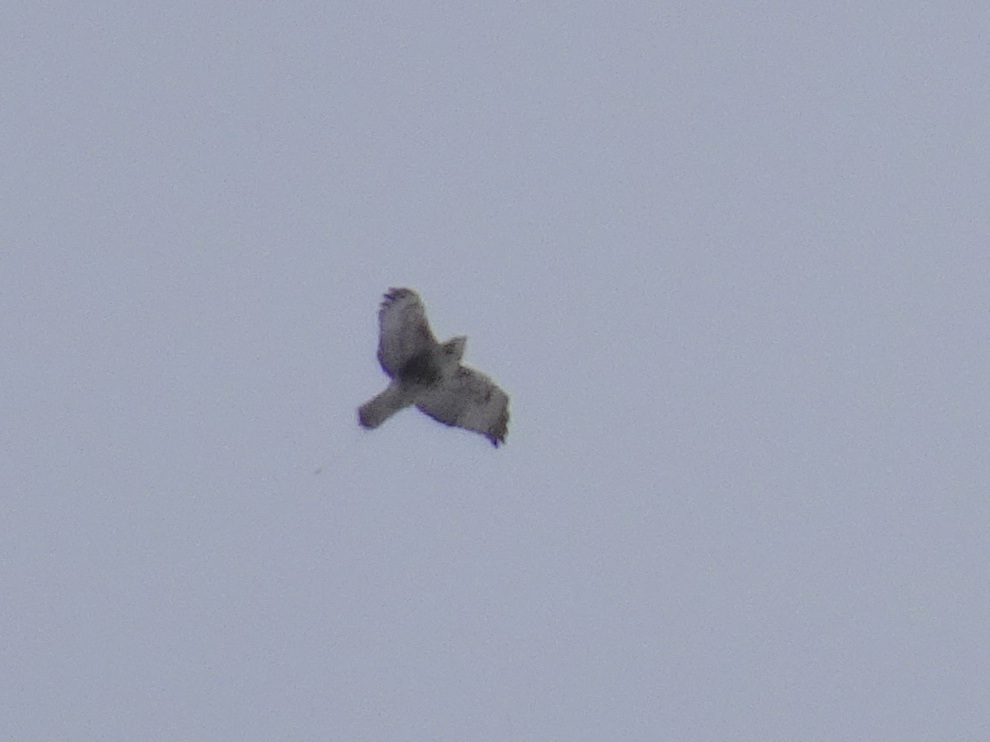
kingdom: Animalia
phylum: Chordata
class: Aves
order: Accipitriformes
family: Accipitridae
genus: Buteo
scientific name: Buteo jamaicensis
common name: Red-tailed hawk
